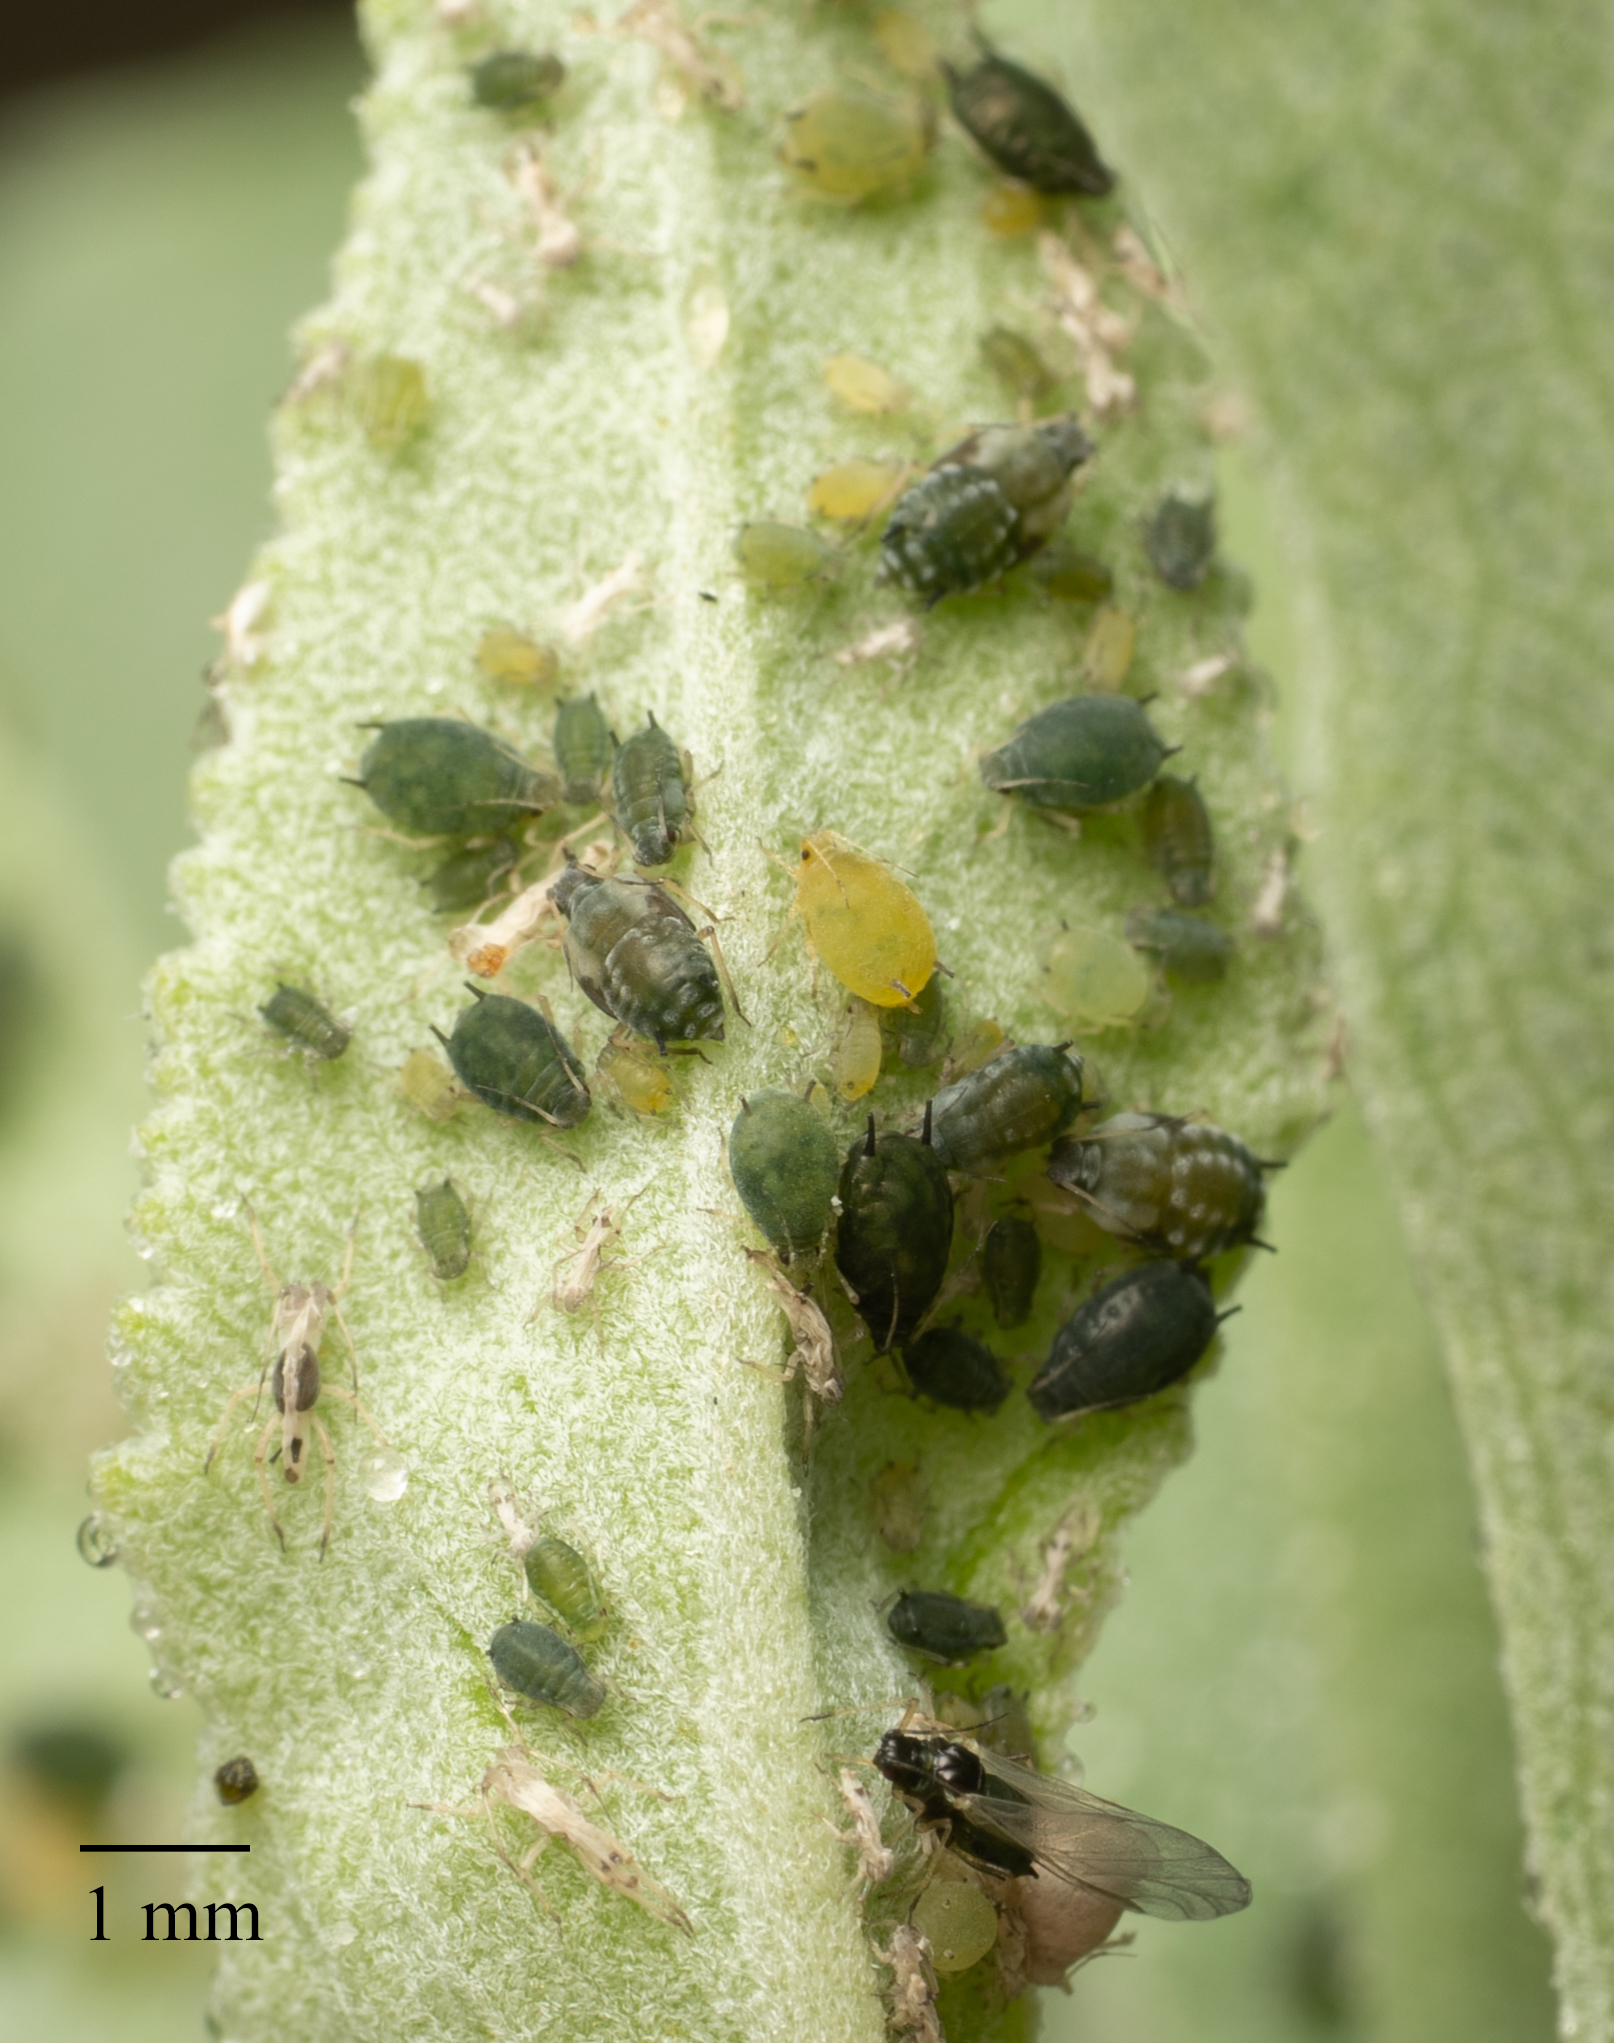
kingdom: Animalia
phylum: Arthropoda
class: Insecta
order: Hemiptera
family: Aphididae
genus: Aphis
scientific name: Aphis gossypii
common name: Melon aphid
